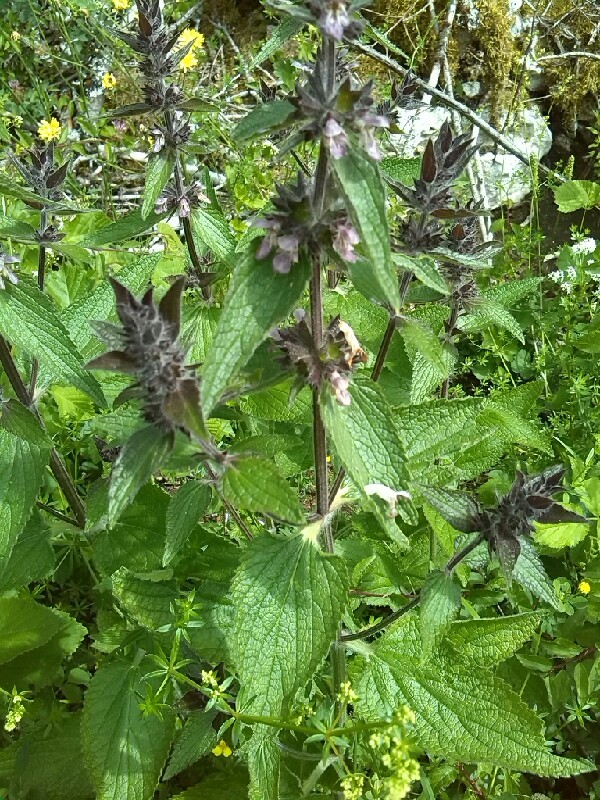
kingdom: Plantae
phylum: Tracheophyta
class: Magnoliopsida
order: Lamiales
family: Lamiaceae
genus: Stachys
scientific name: Stachys alpina
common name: Limestone woundwort
